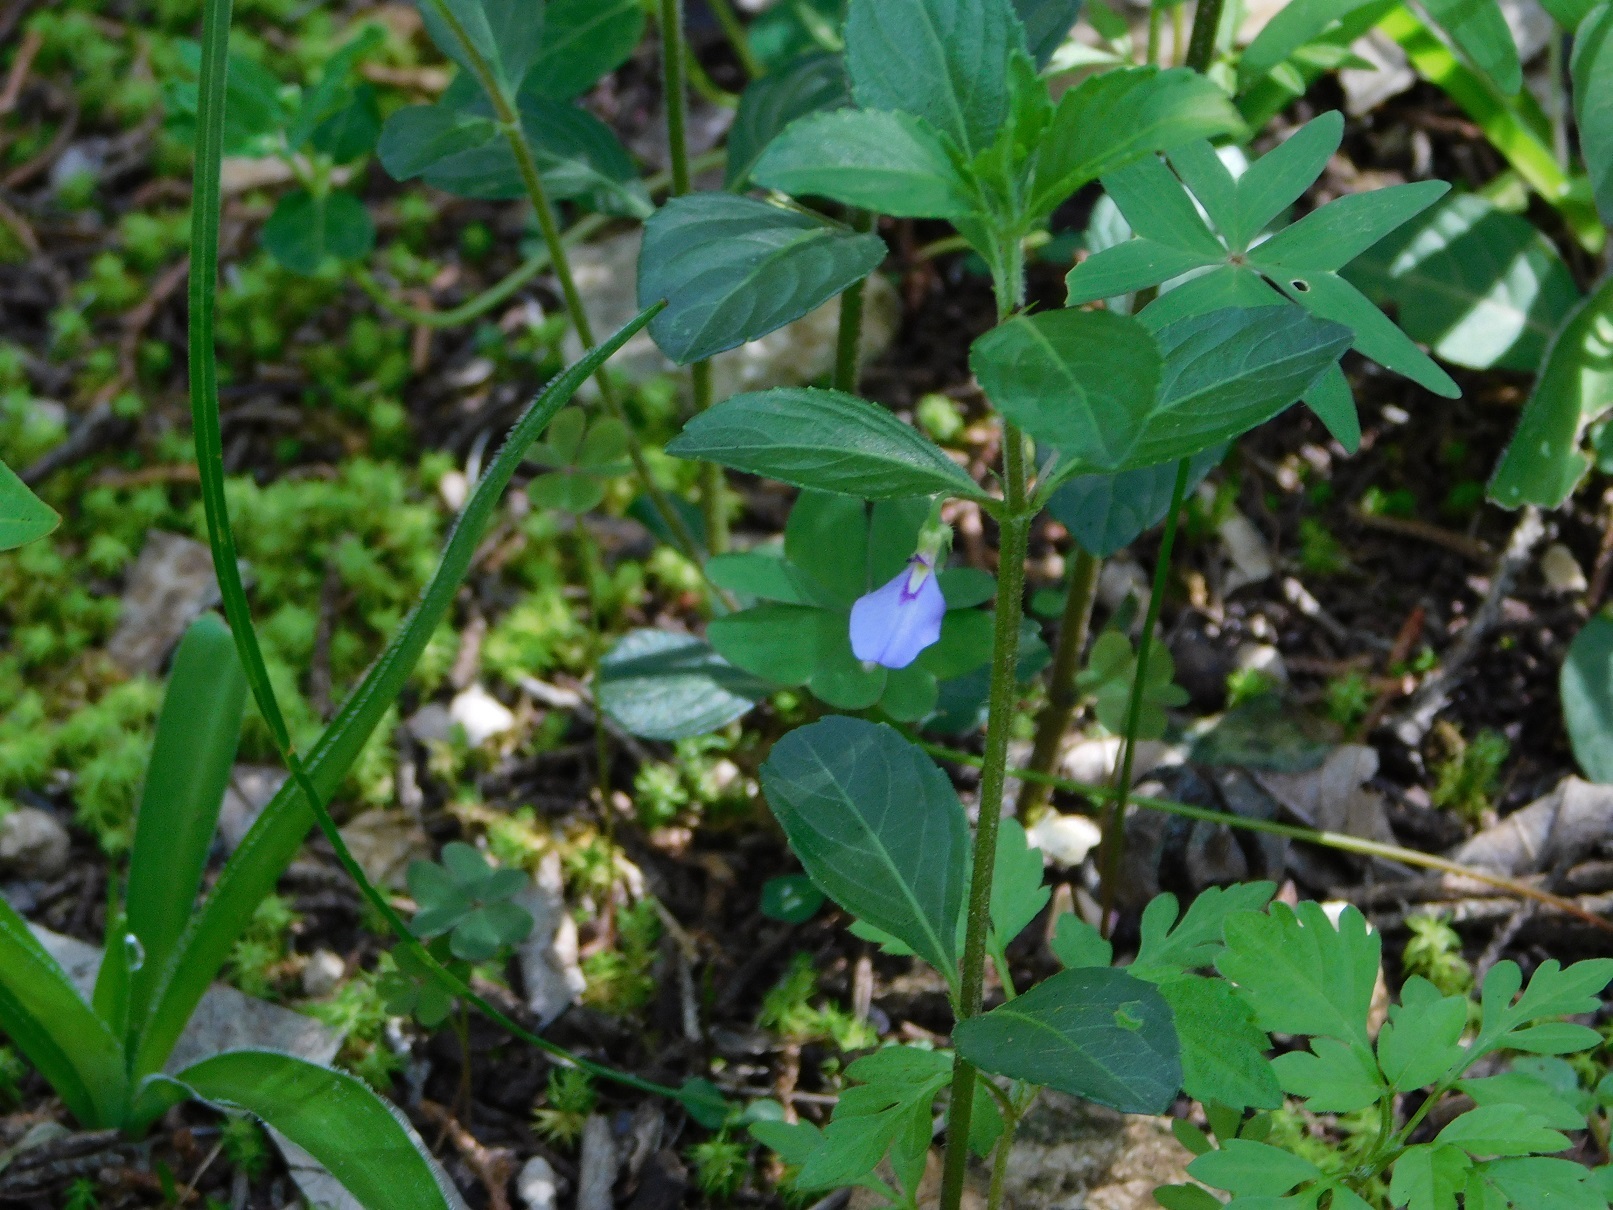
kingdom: Plantae
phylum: Tracheophyta
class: Magnoliopsida
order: Malpighiales
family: Violaceae
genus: Hybanthus
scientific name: Hybanthus longipes
